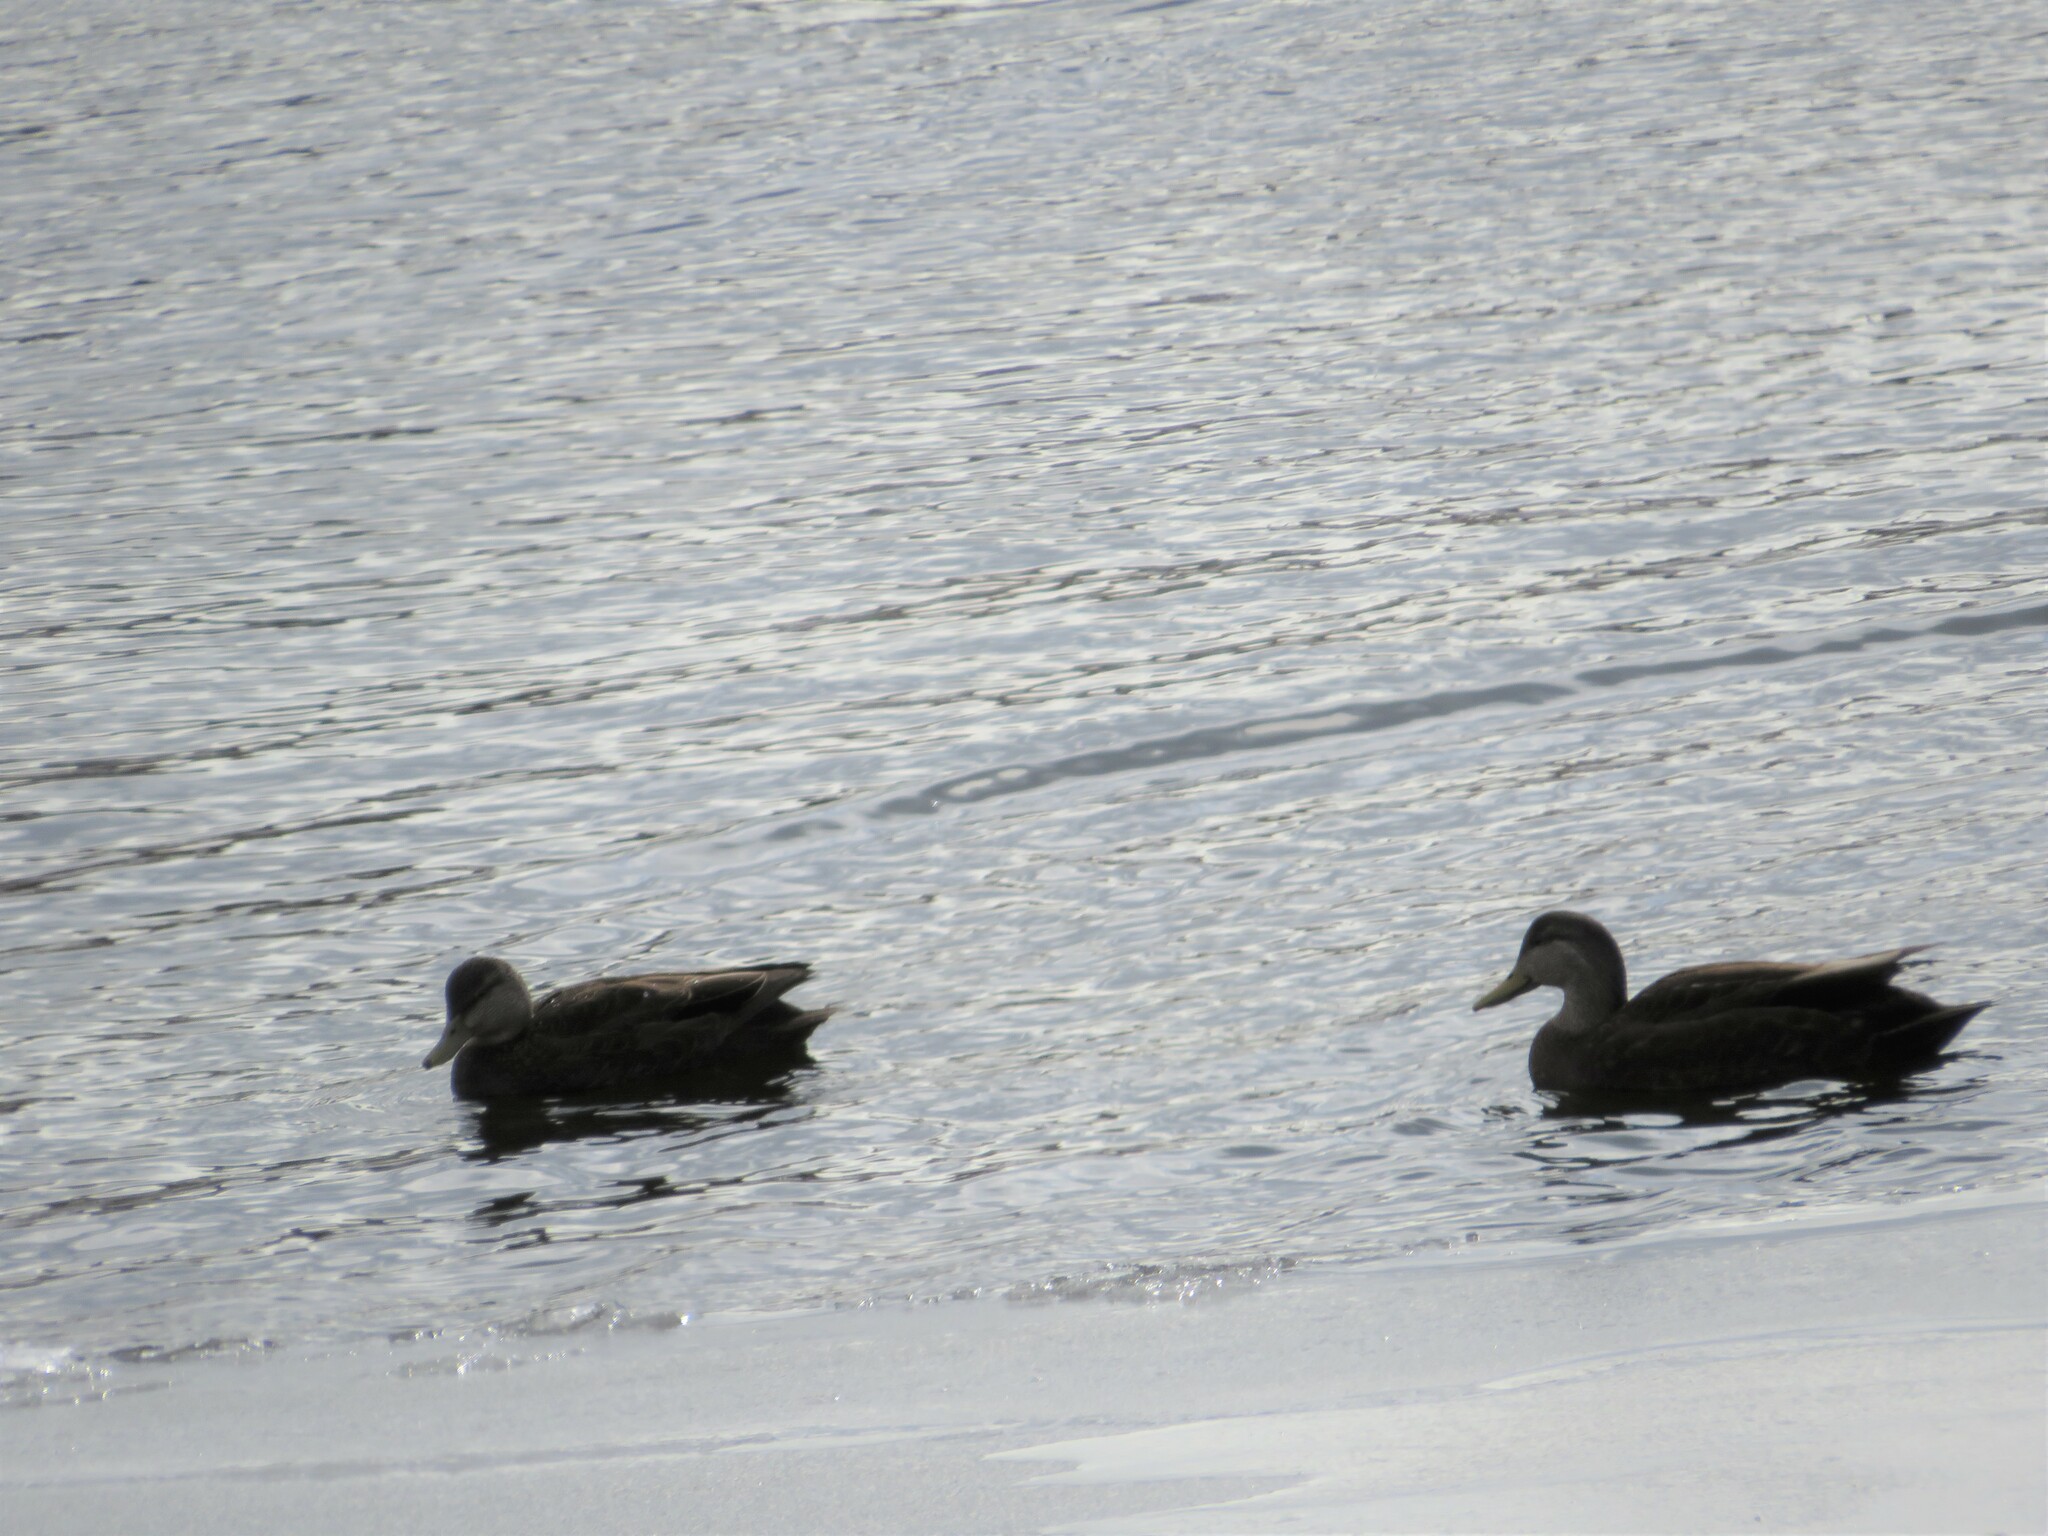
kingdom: Animalia
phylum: Chordata
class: Aves
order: Anseriformes
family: Anatidae
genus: Anas
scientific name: Anas rubripes
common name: American black duck
